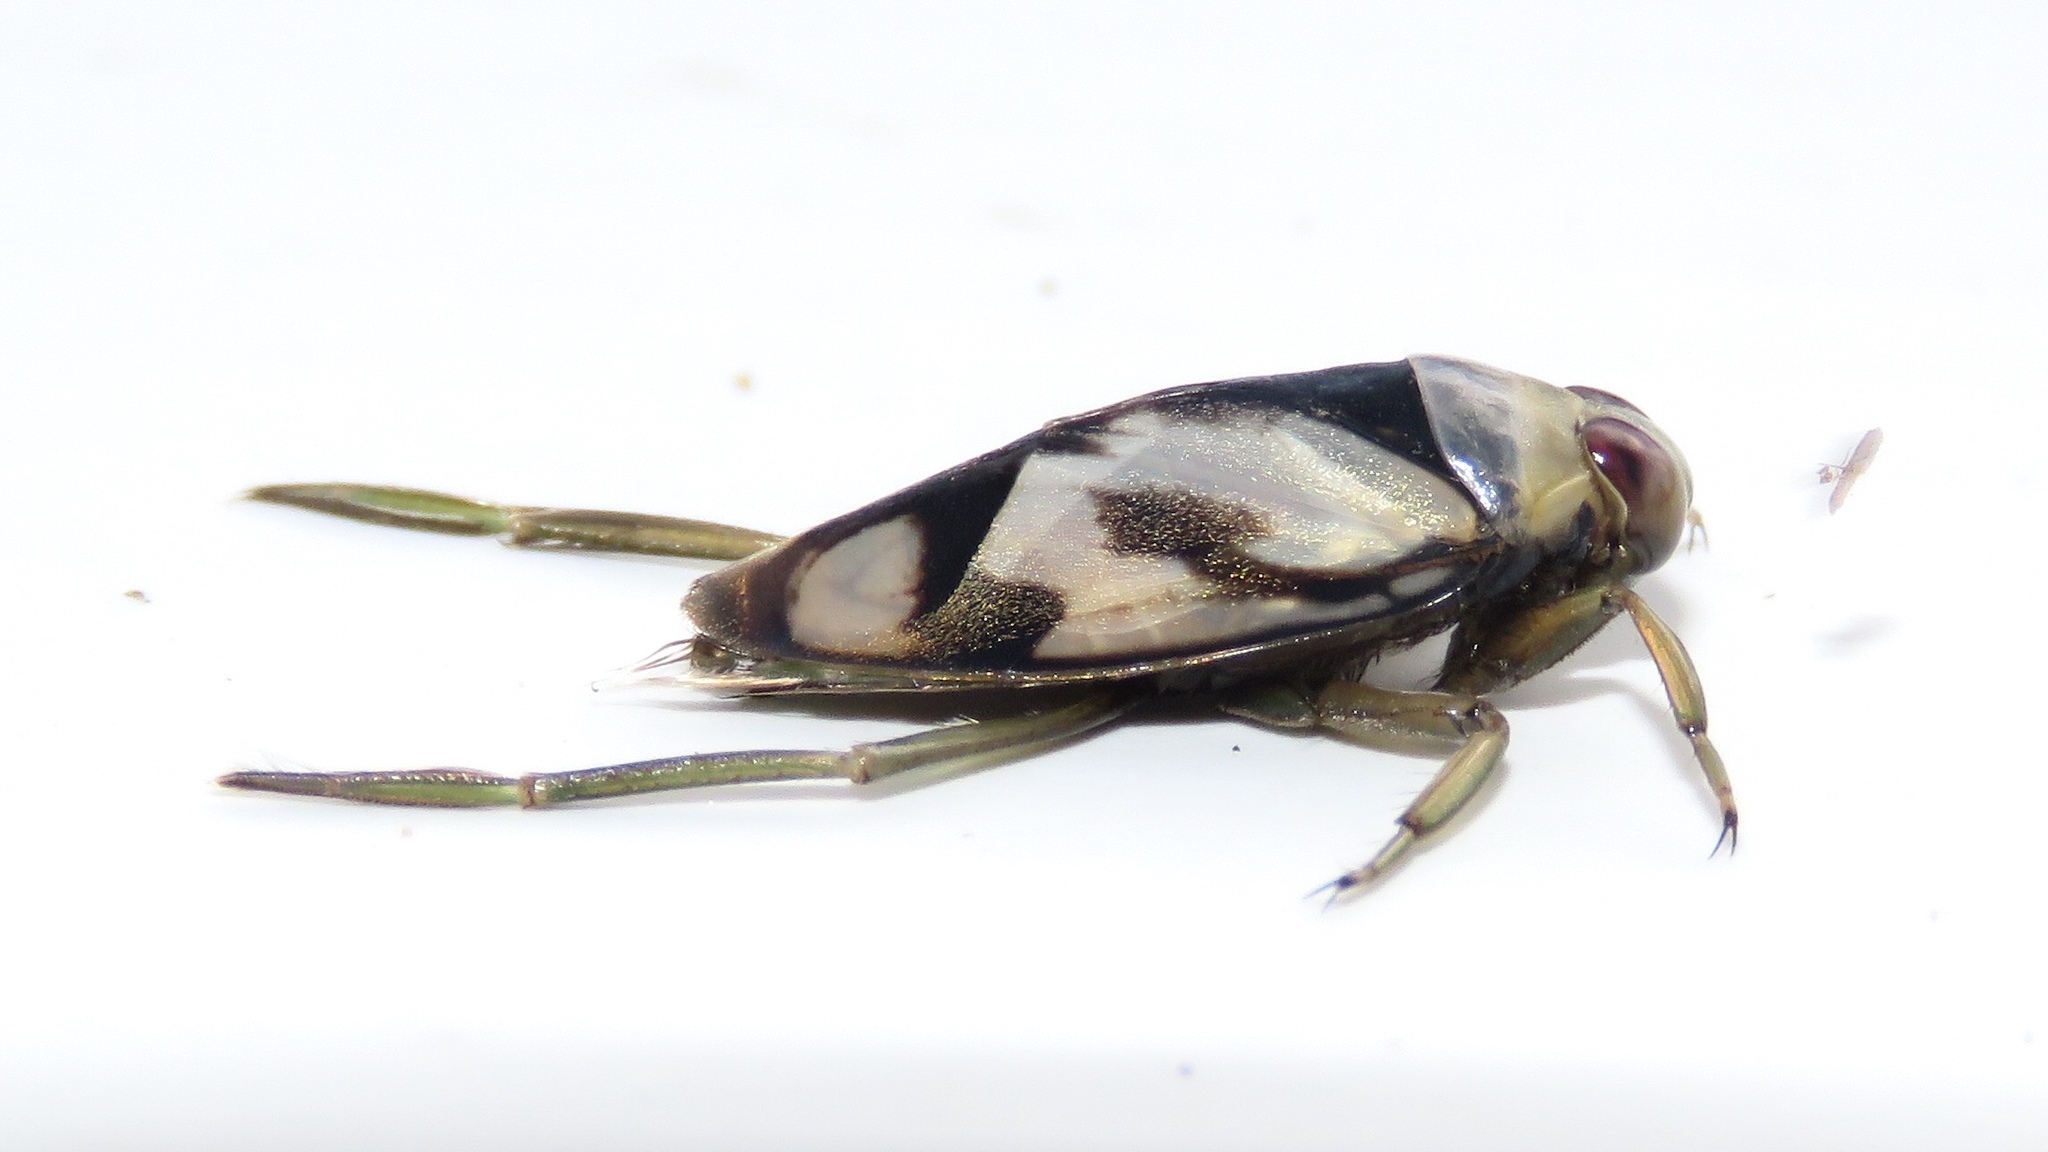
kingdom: Animalia
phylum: Arthropoda
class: Insecta
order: Hemiptera
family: Notonectidae
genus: Notonecta
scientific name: Notonecta undulata
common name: Grousewinged backswimmer
